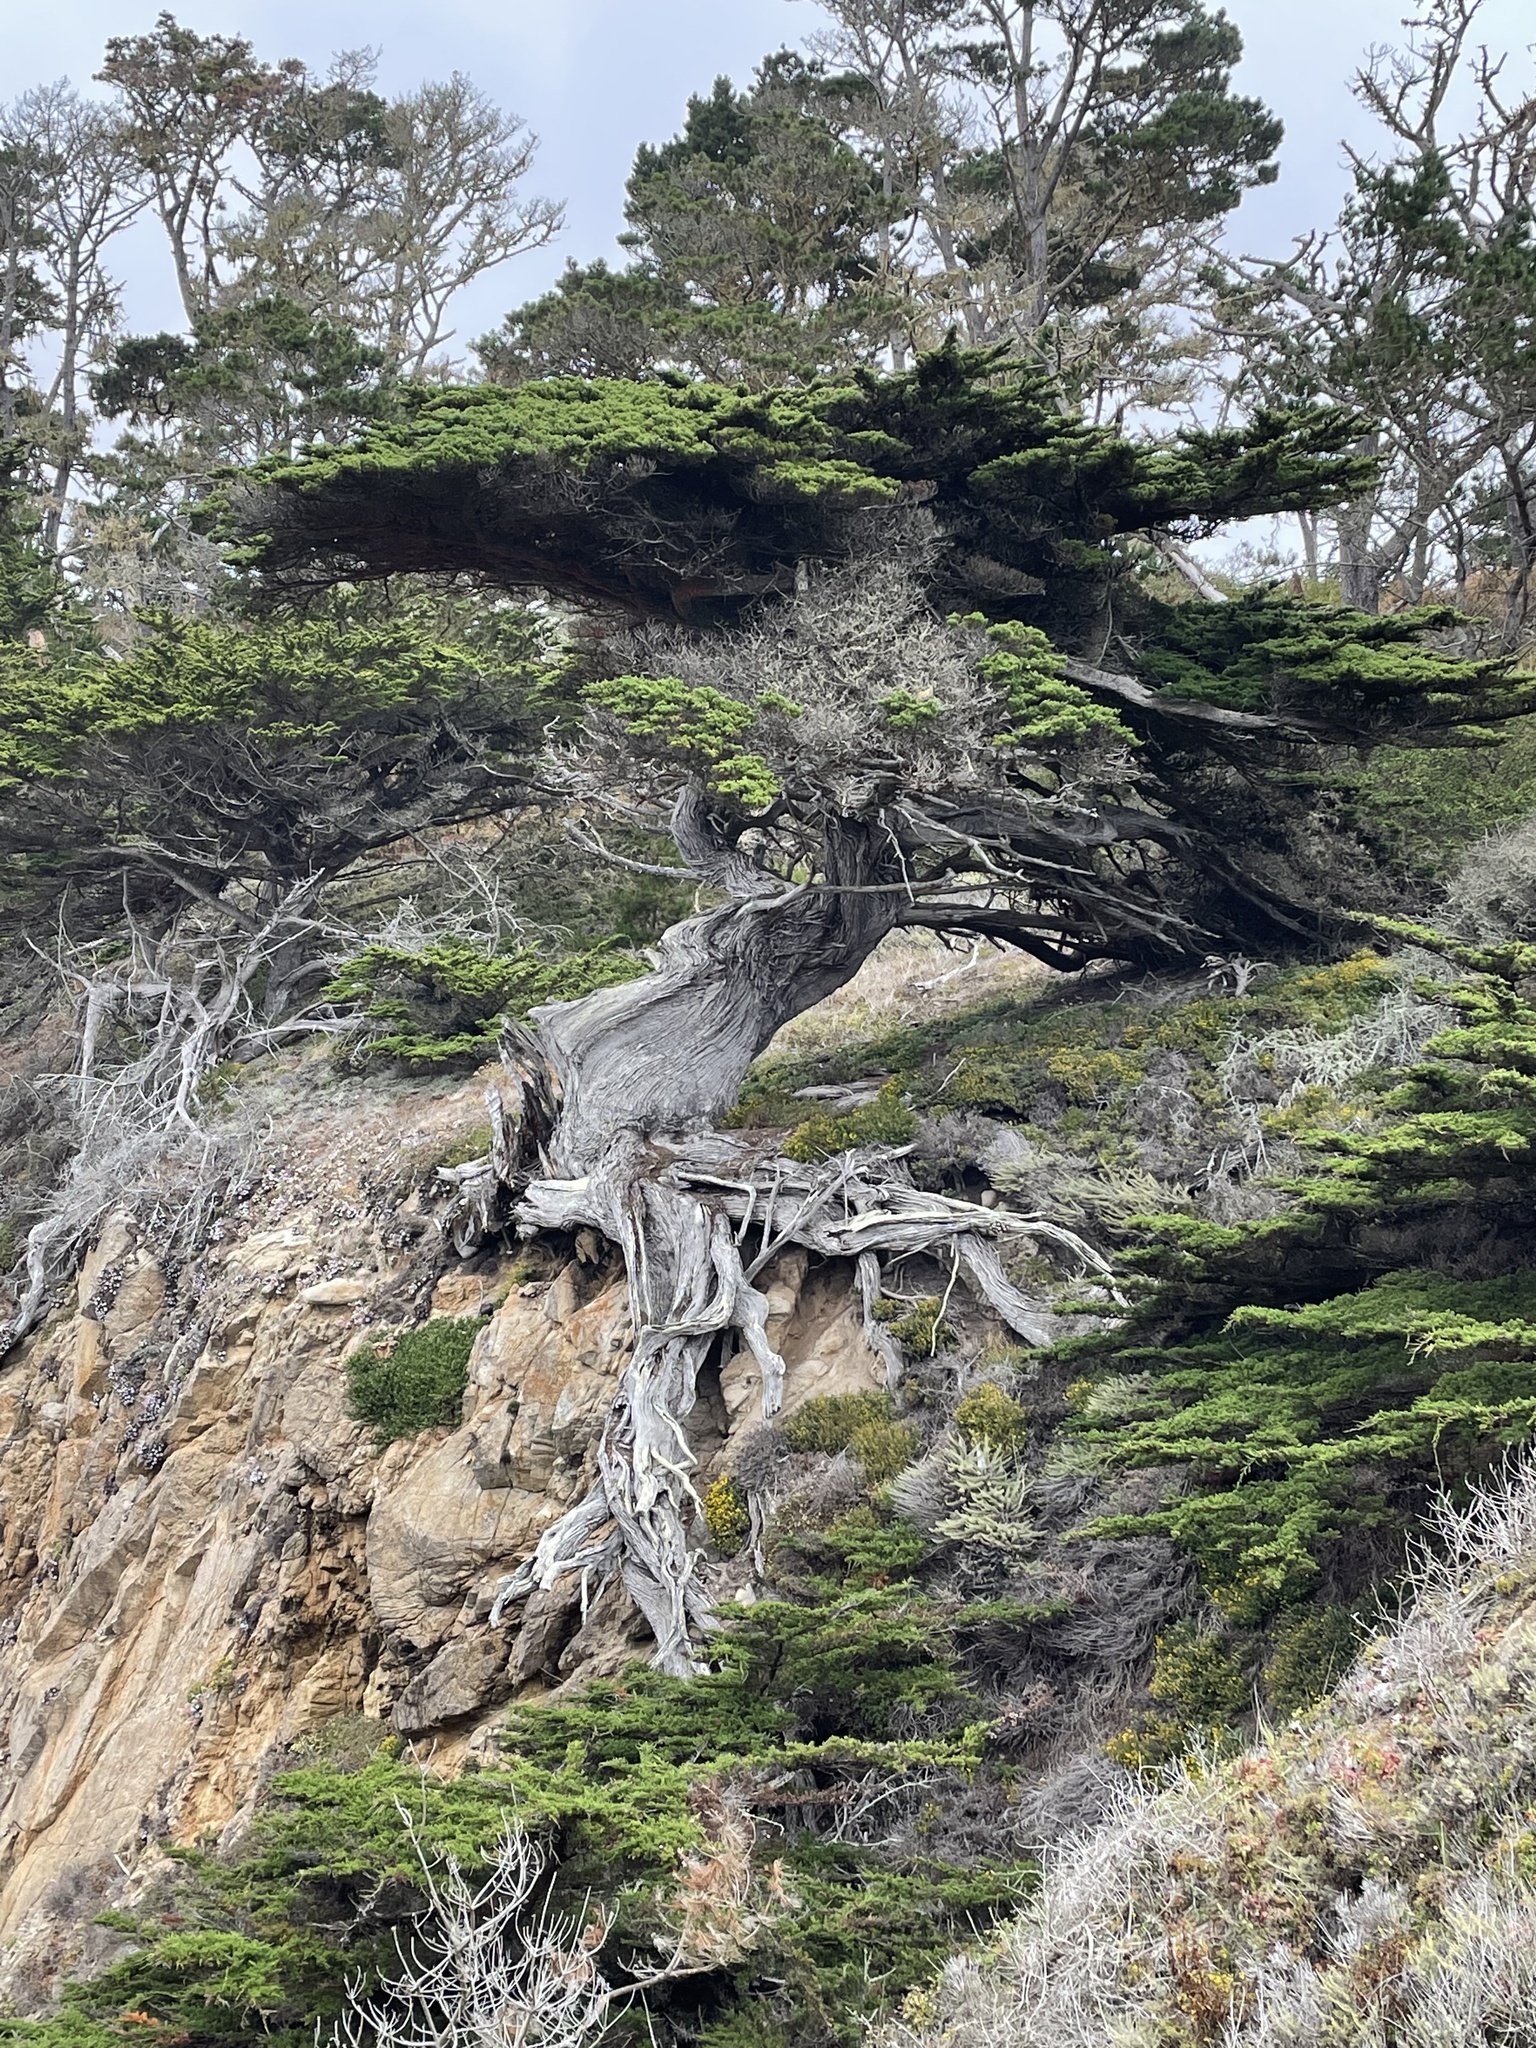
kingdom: Plantae
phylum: Tracheophyta
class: Pinopsida
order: Pinales
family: Cupressaceae
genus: Cupressus
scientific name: Cupressus macrocarpa
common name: Monterey cypress
